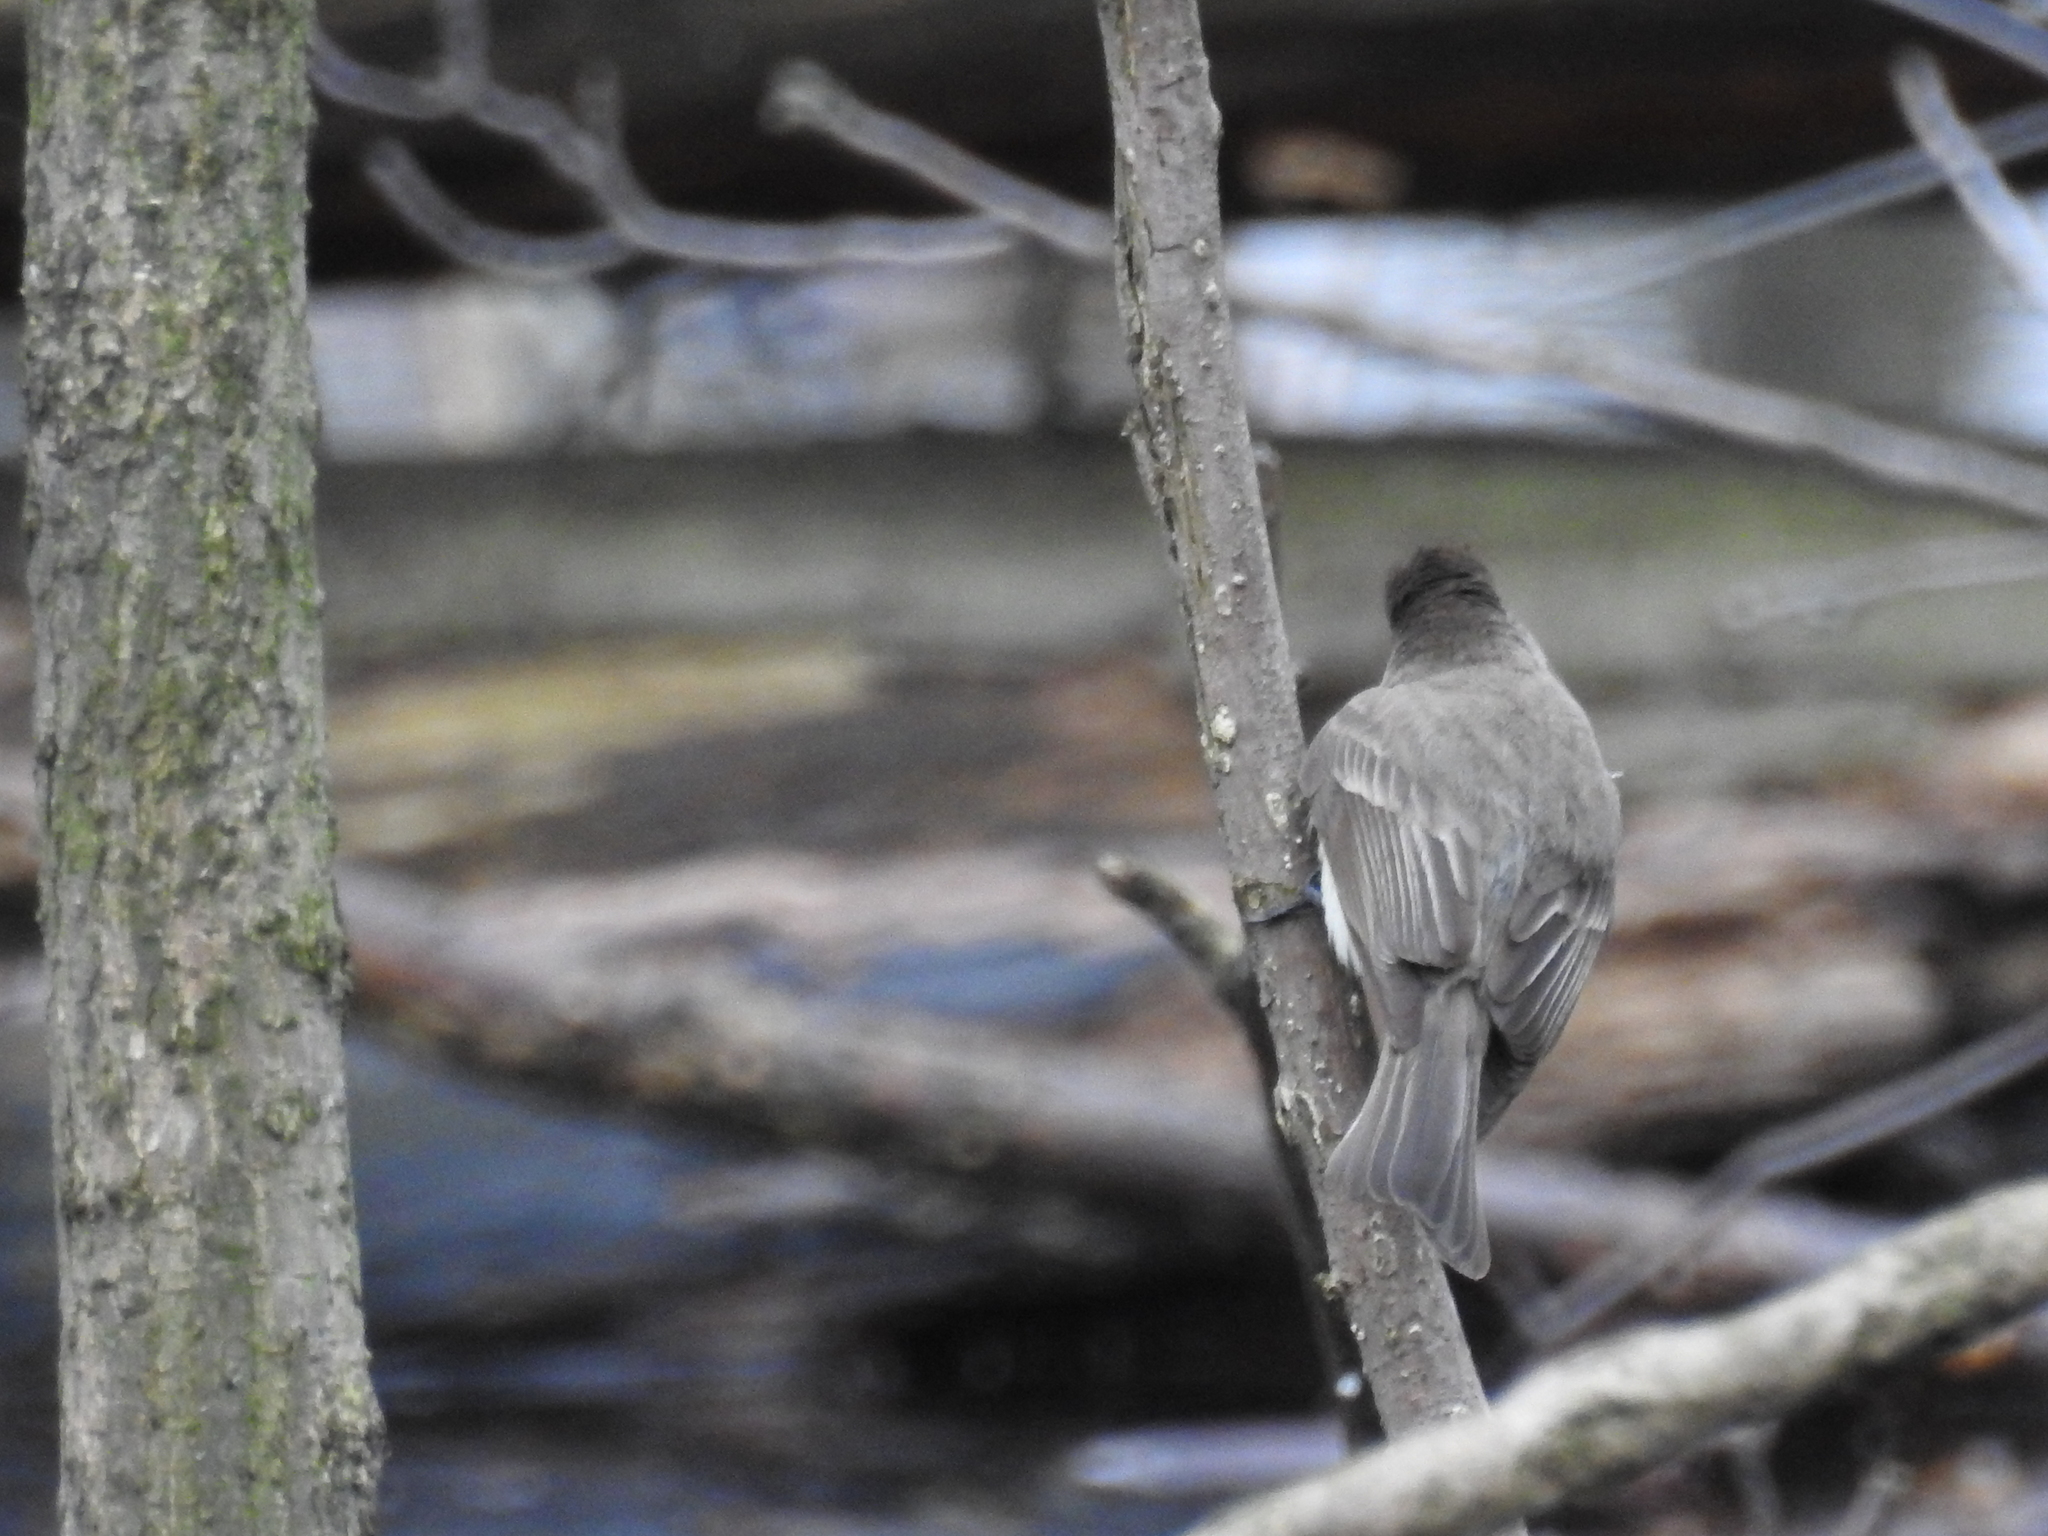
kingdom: Animalia
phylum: Chordata
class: Aves
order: Passeriformes
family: Tyrannidae
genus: Sayornis
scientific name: Sayornis phoebe
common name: Eastern phoebe
